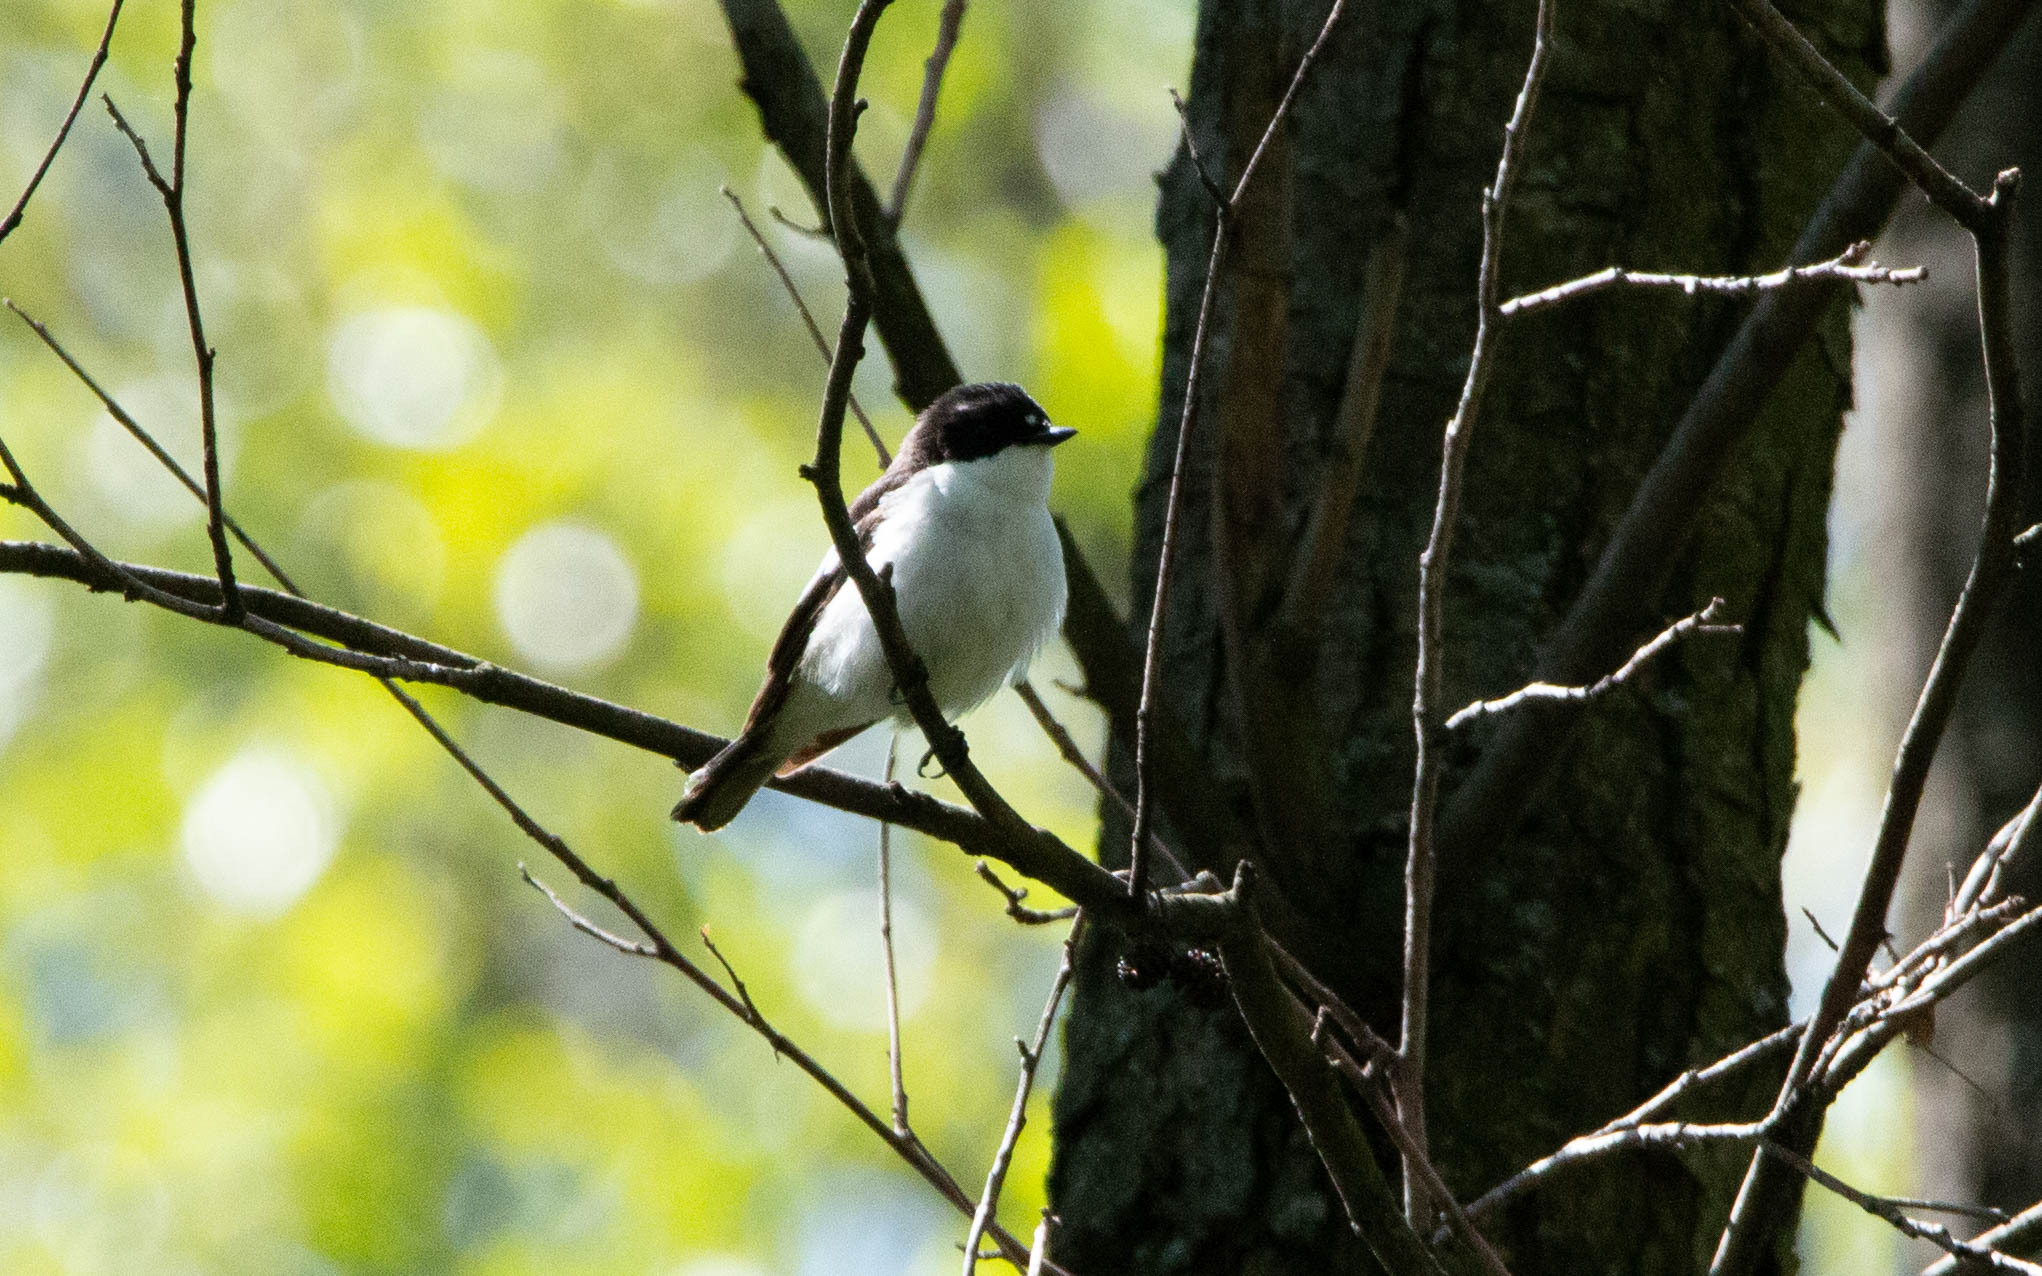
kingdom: Animalia
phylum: Chordata
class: Aves
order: Passeriformes
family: Muscicapidae
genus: Ficedula
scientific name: Ficedula hypoleuca
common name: European pied flycatcher
